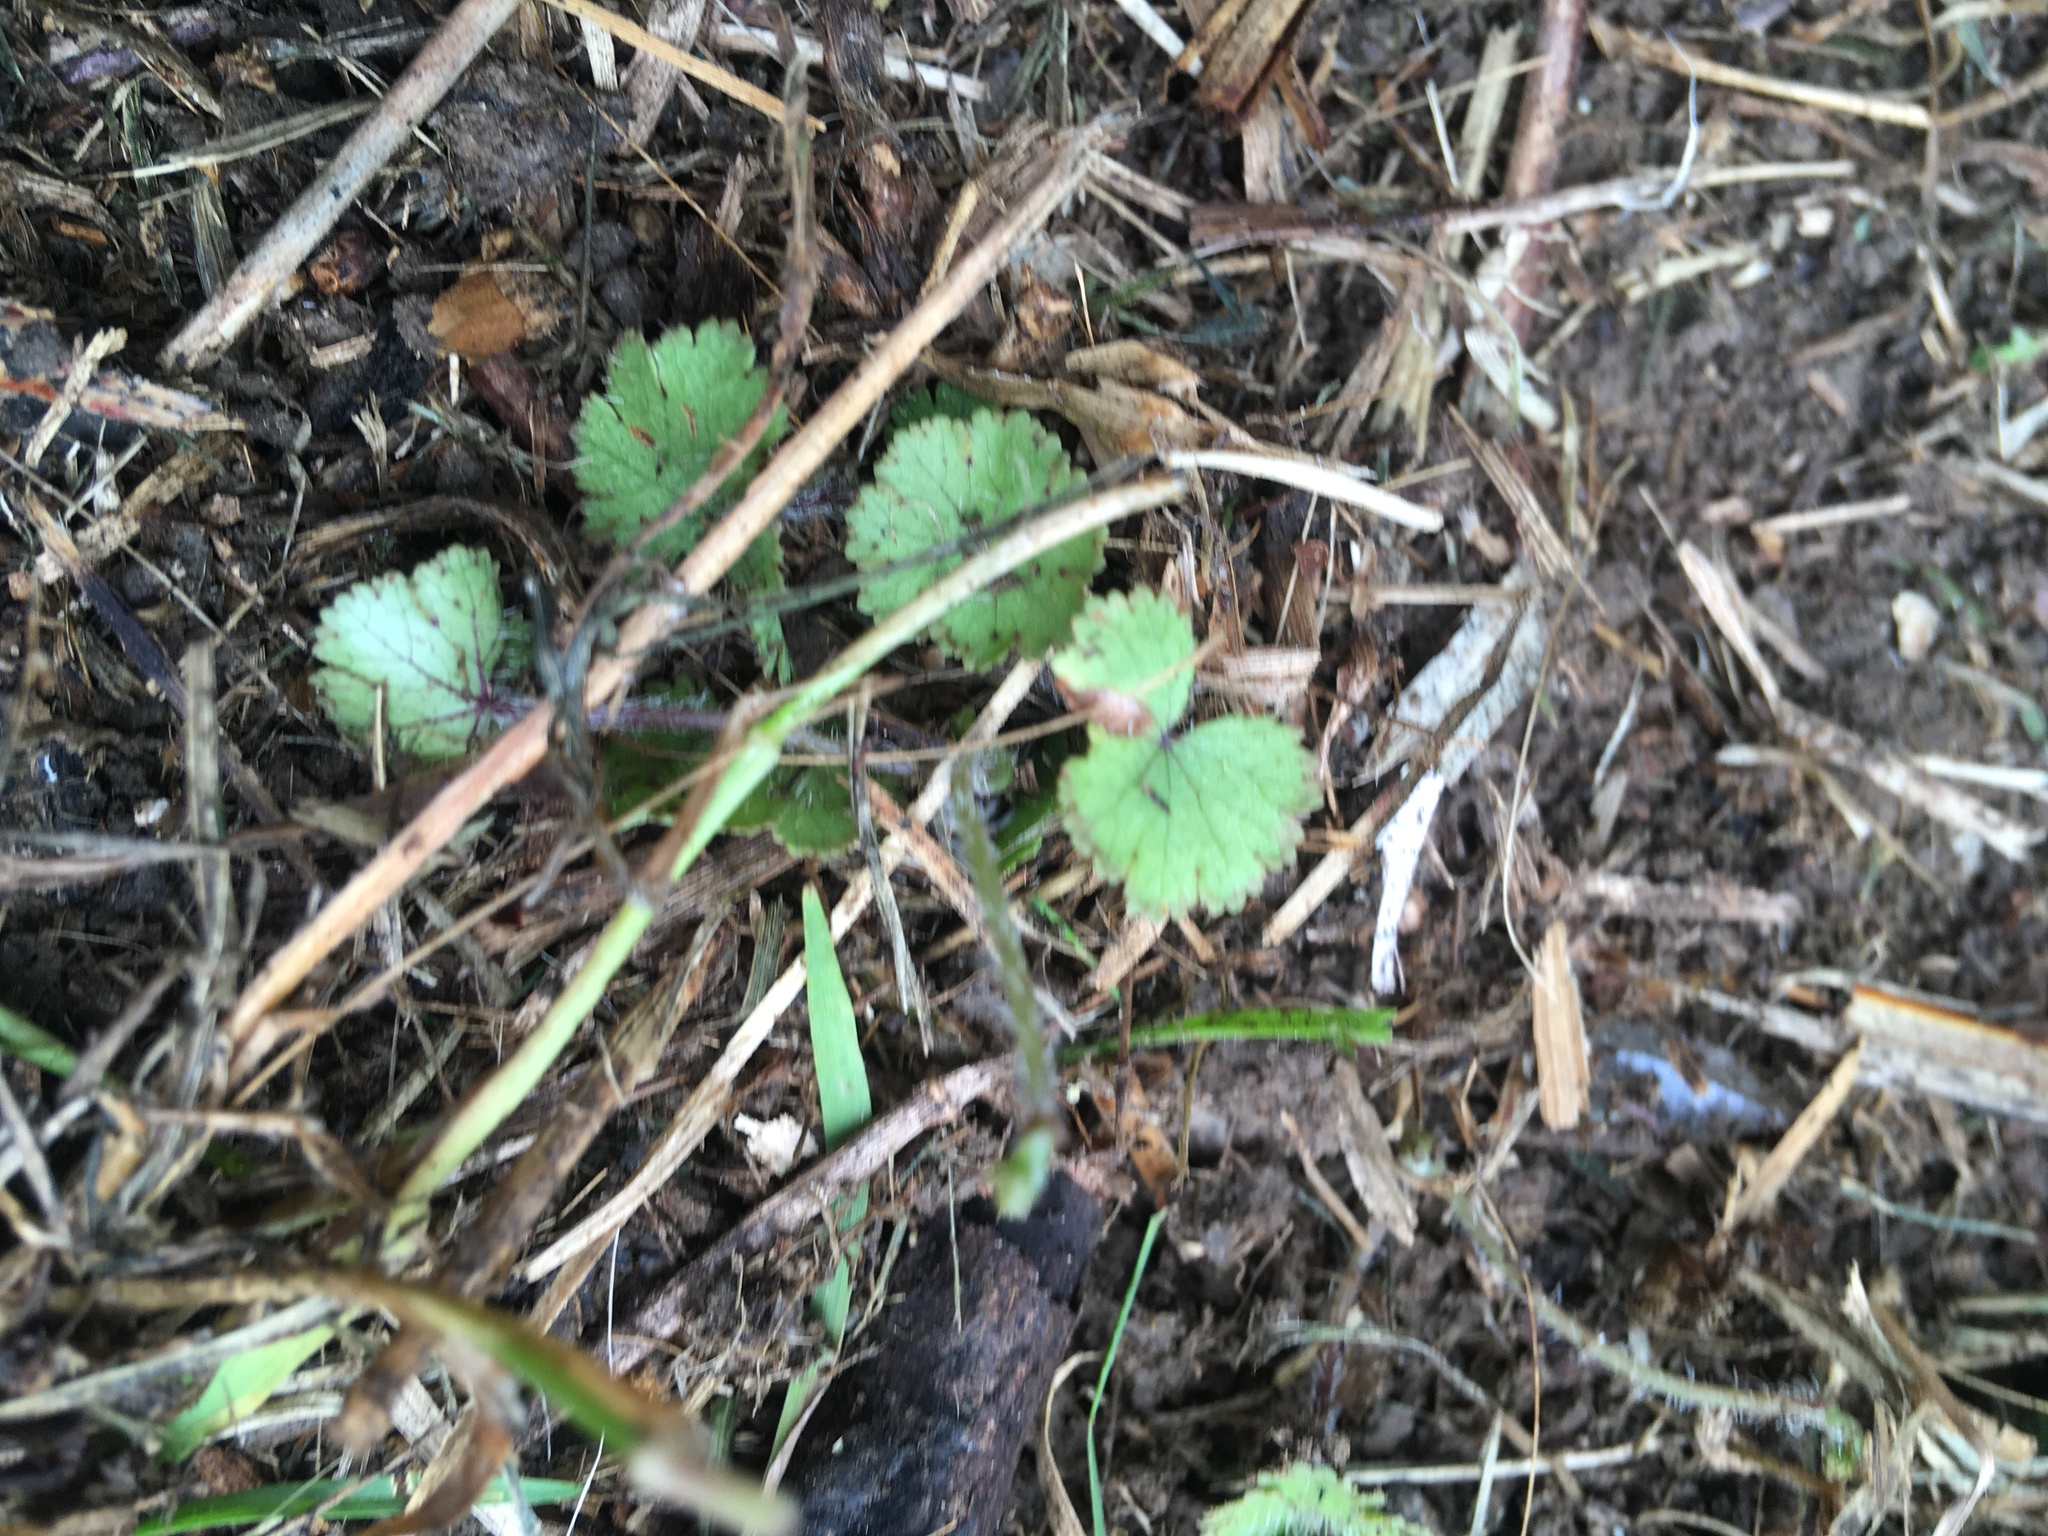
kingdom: Plantae
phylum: Tracheophyta
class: Magnoliopsida
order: Apiales
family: Araliaceae
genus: Hydrocotyle
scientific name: Hydrocotyle moschata
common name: Hairy pennywort
